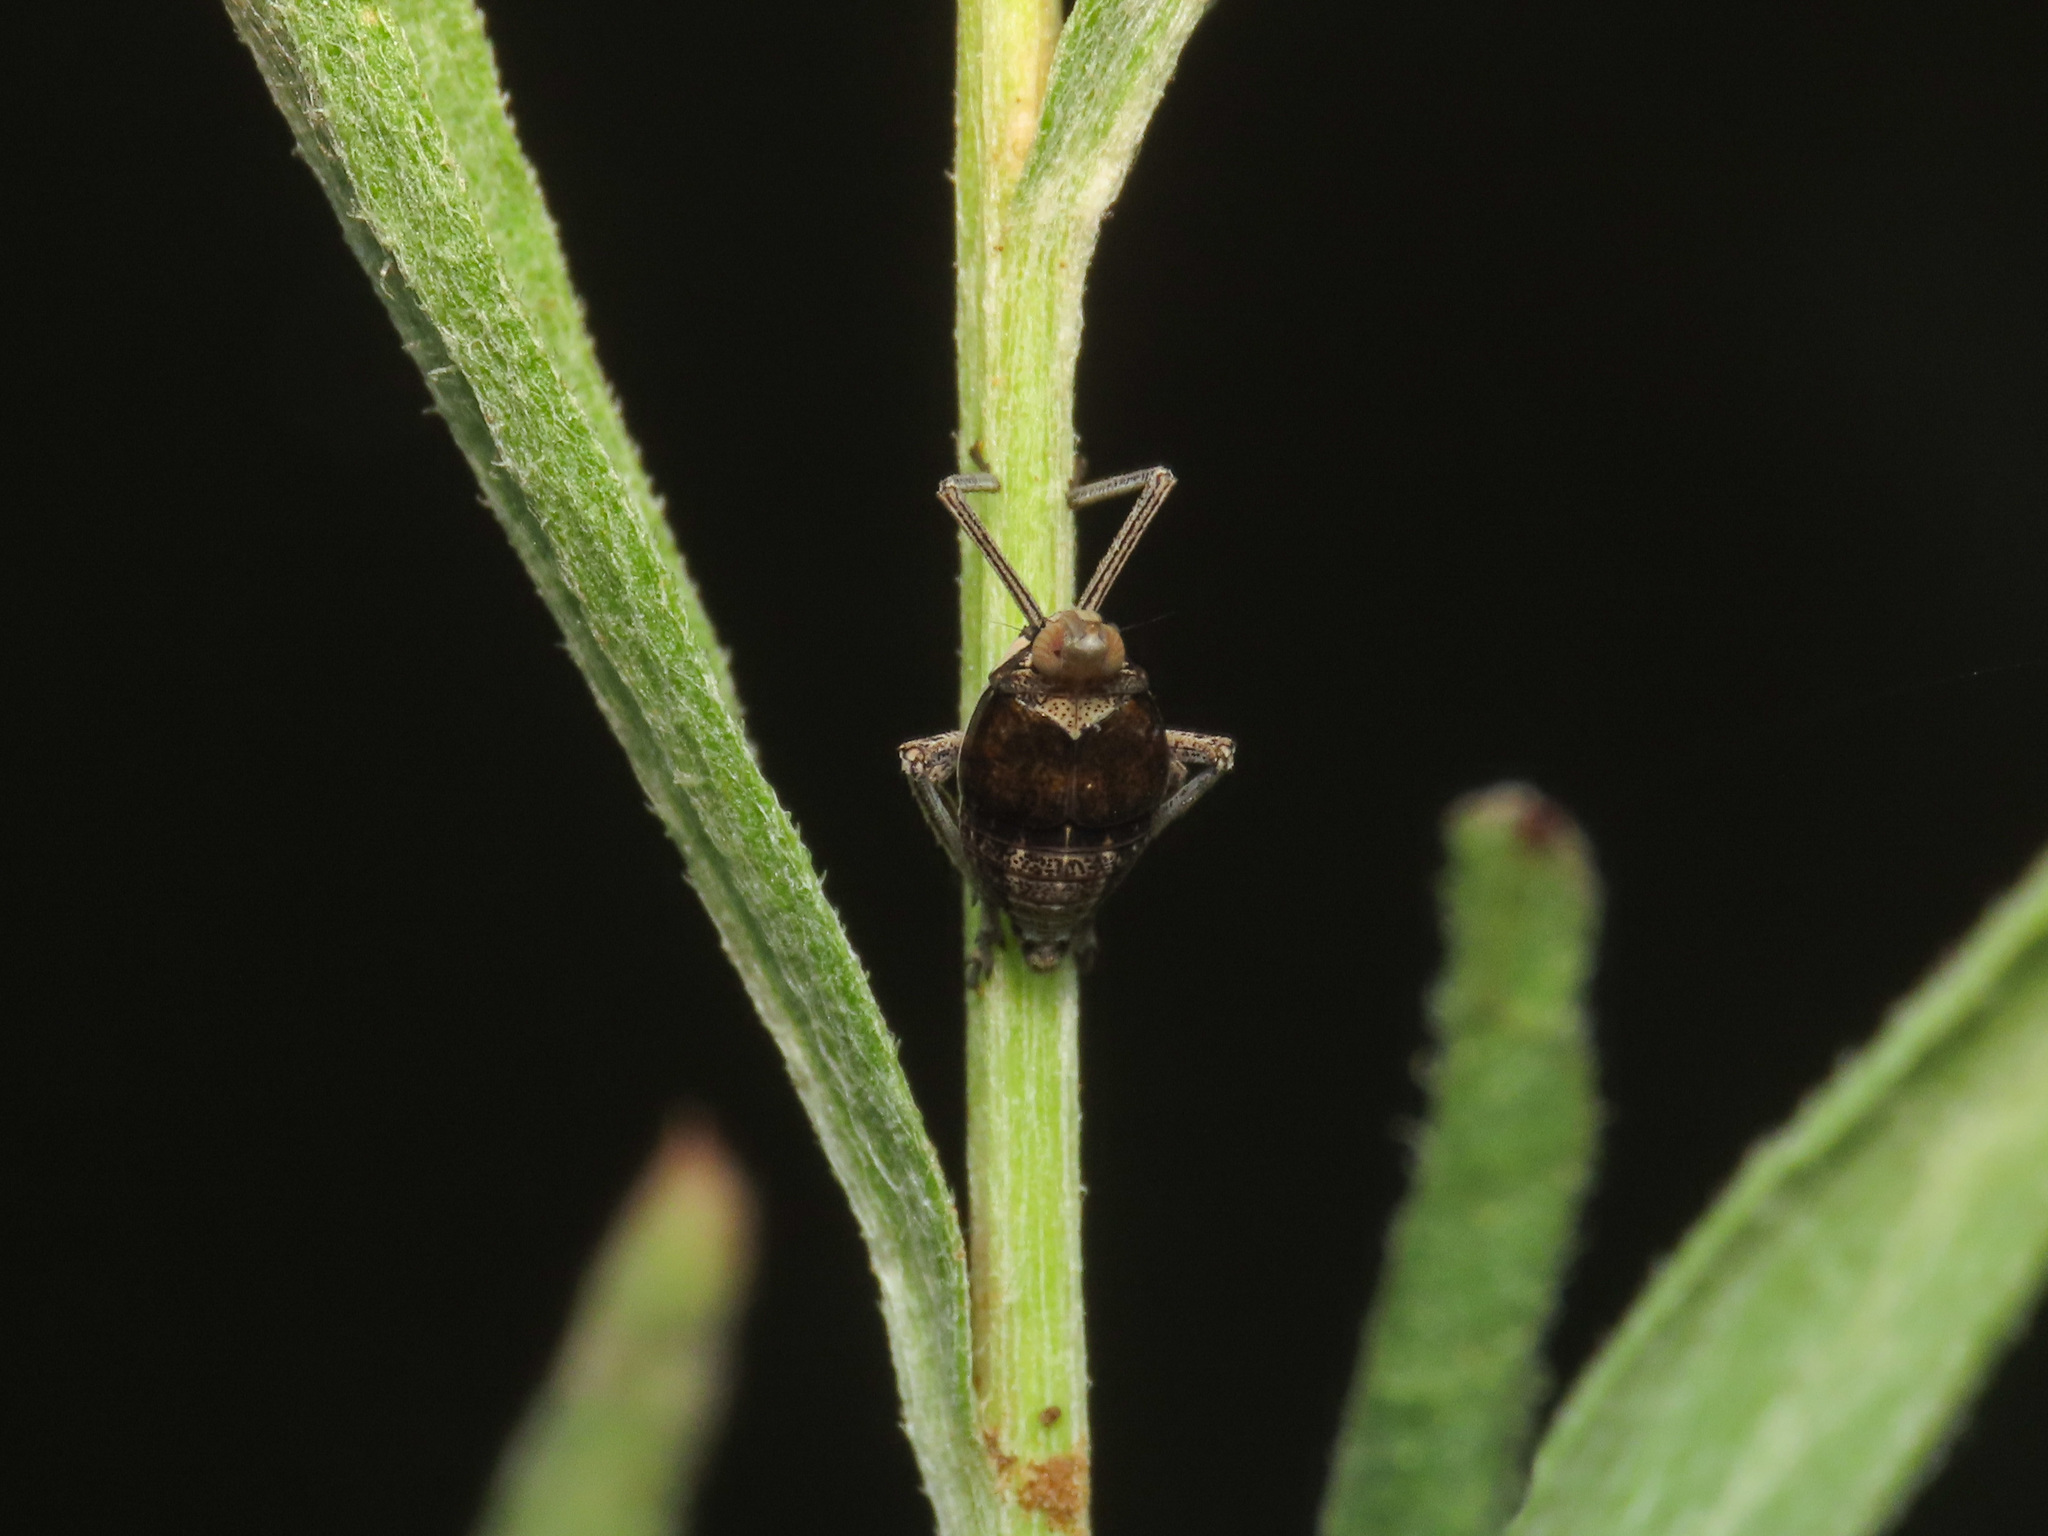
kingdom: Animalia
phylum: Arthropoda
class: Insecta
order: Hemiptera
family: Dictyopharidae
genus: Bursinia
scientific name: Bursinia genei
